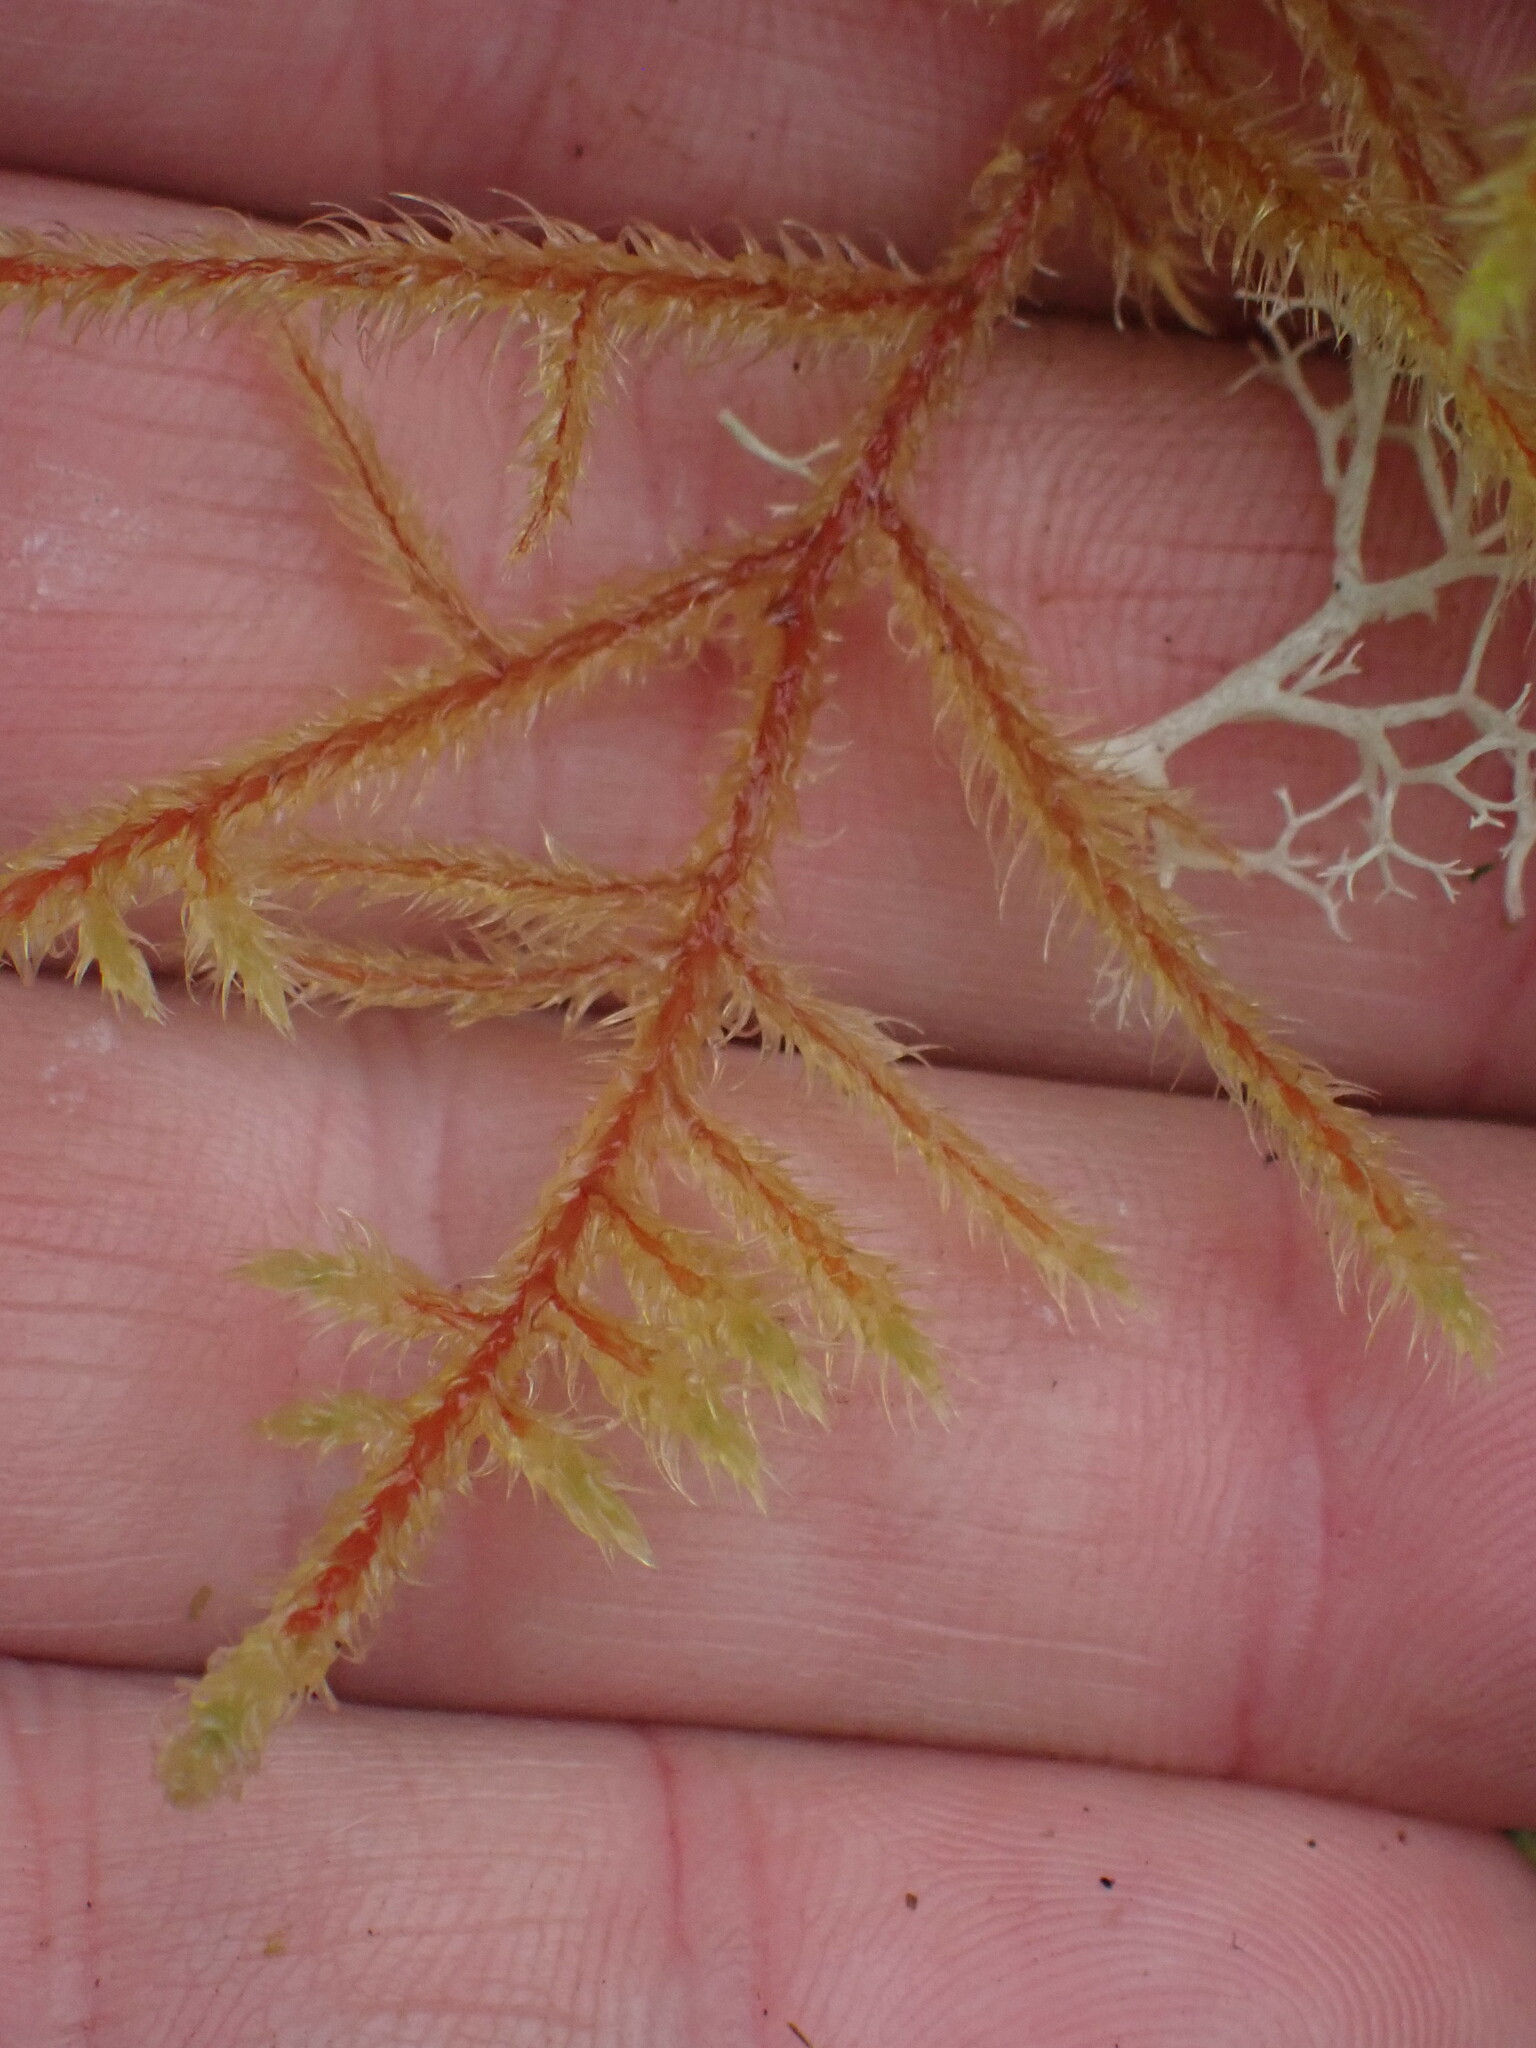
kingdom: Plantae
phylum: Bryophyta
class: Bryopsida
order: Hypnales
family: Hylocomiaceae
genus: Rhytidiadelphus
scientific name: Rhytidiadelphus loreus
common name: Lanky moss
